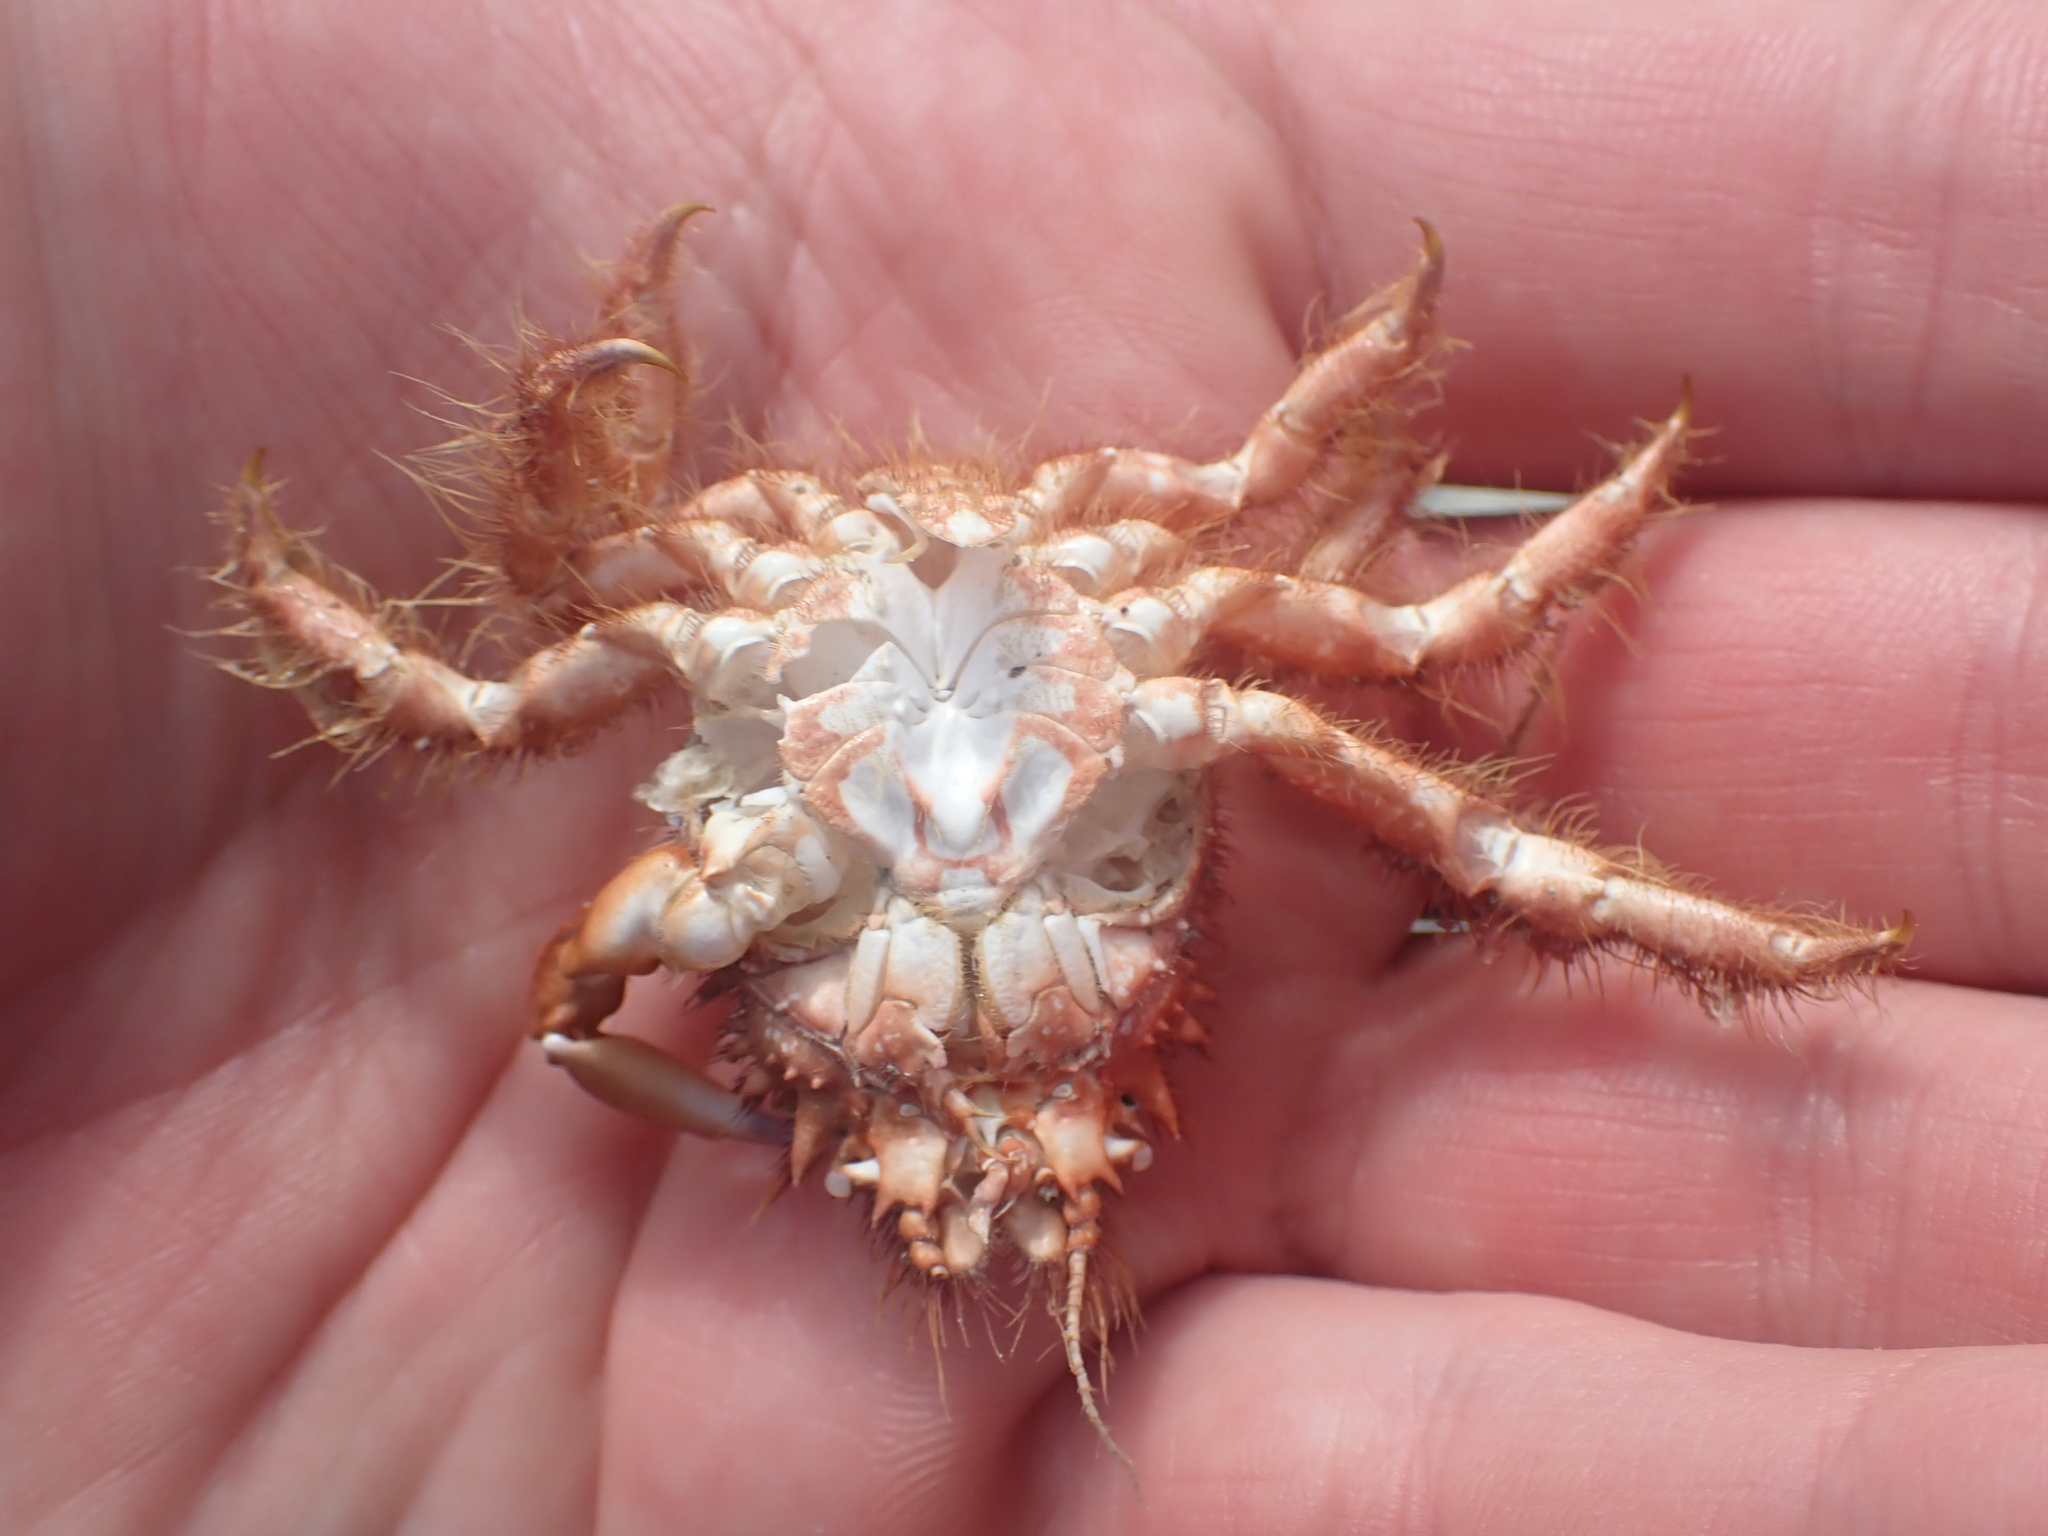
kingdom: Animalia
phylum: Arthropoda
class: Malacostraca
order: Decapoda
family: Majidae
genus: Notomithrax
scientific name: Notomithrax ursus
